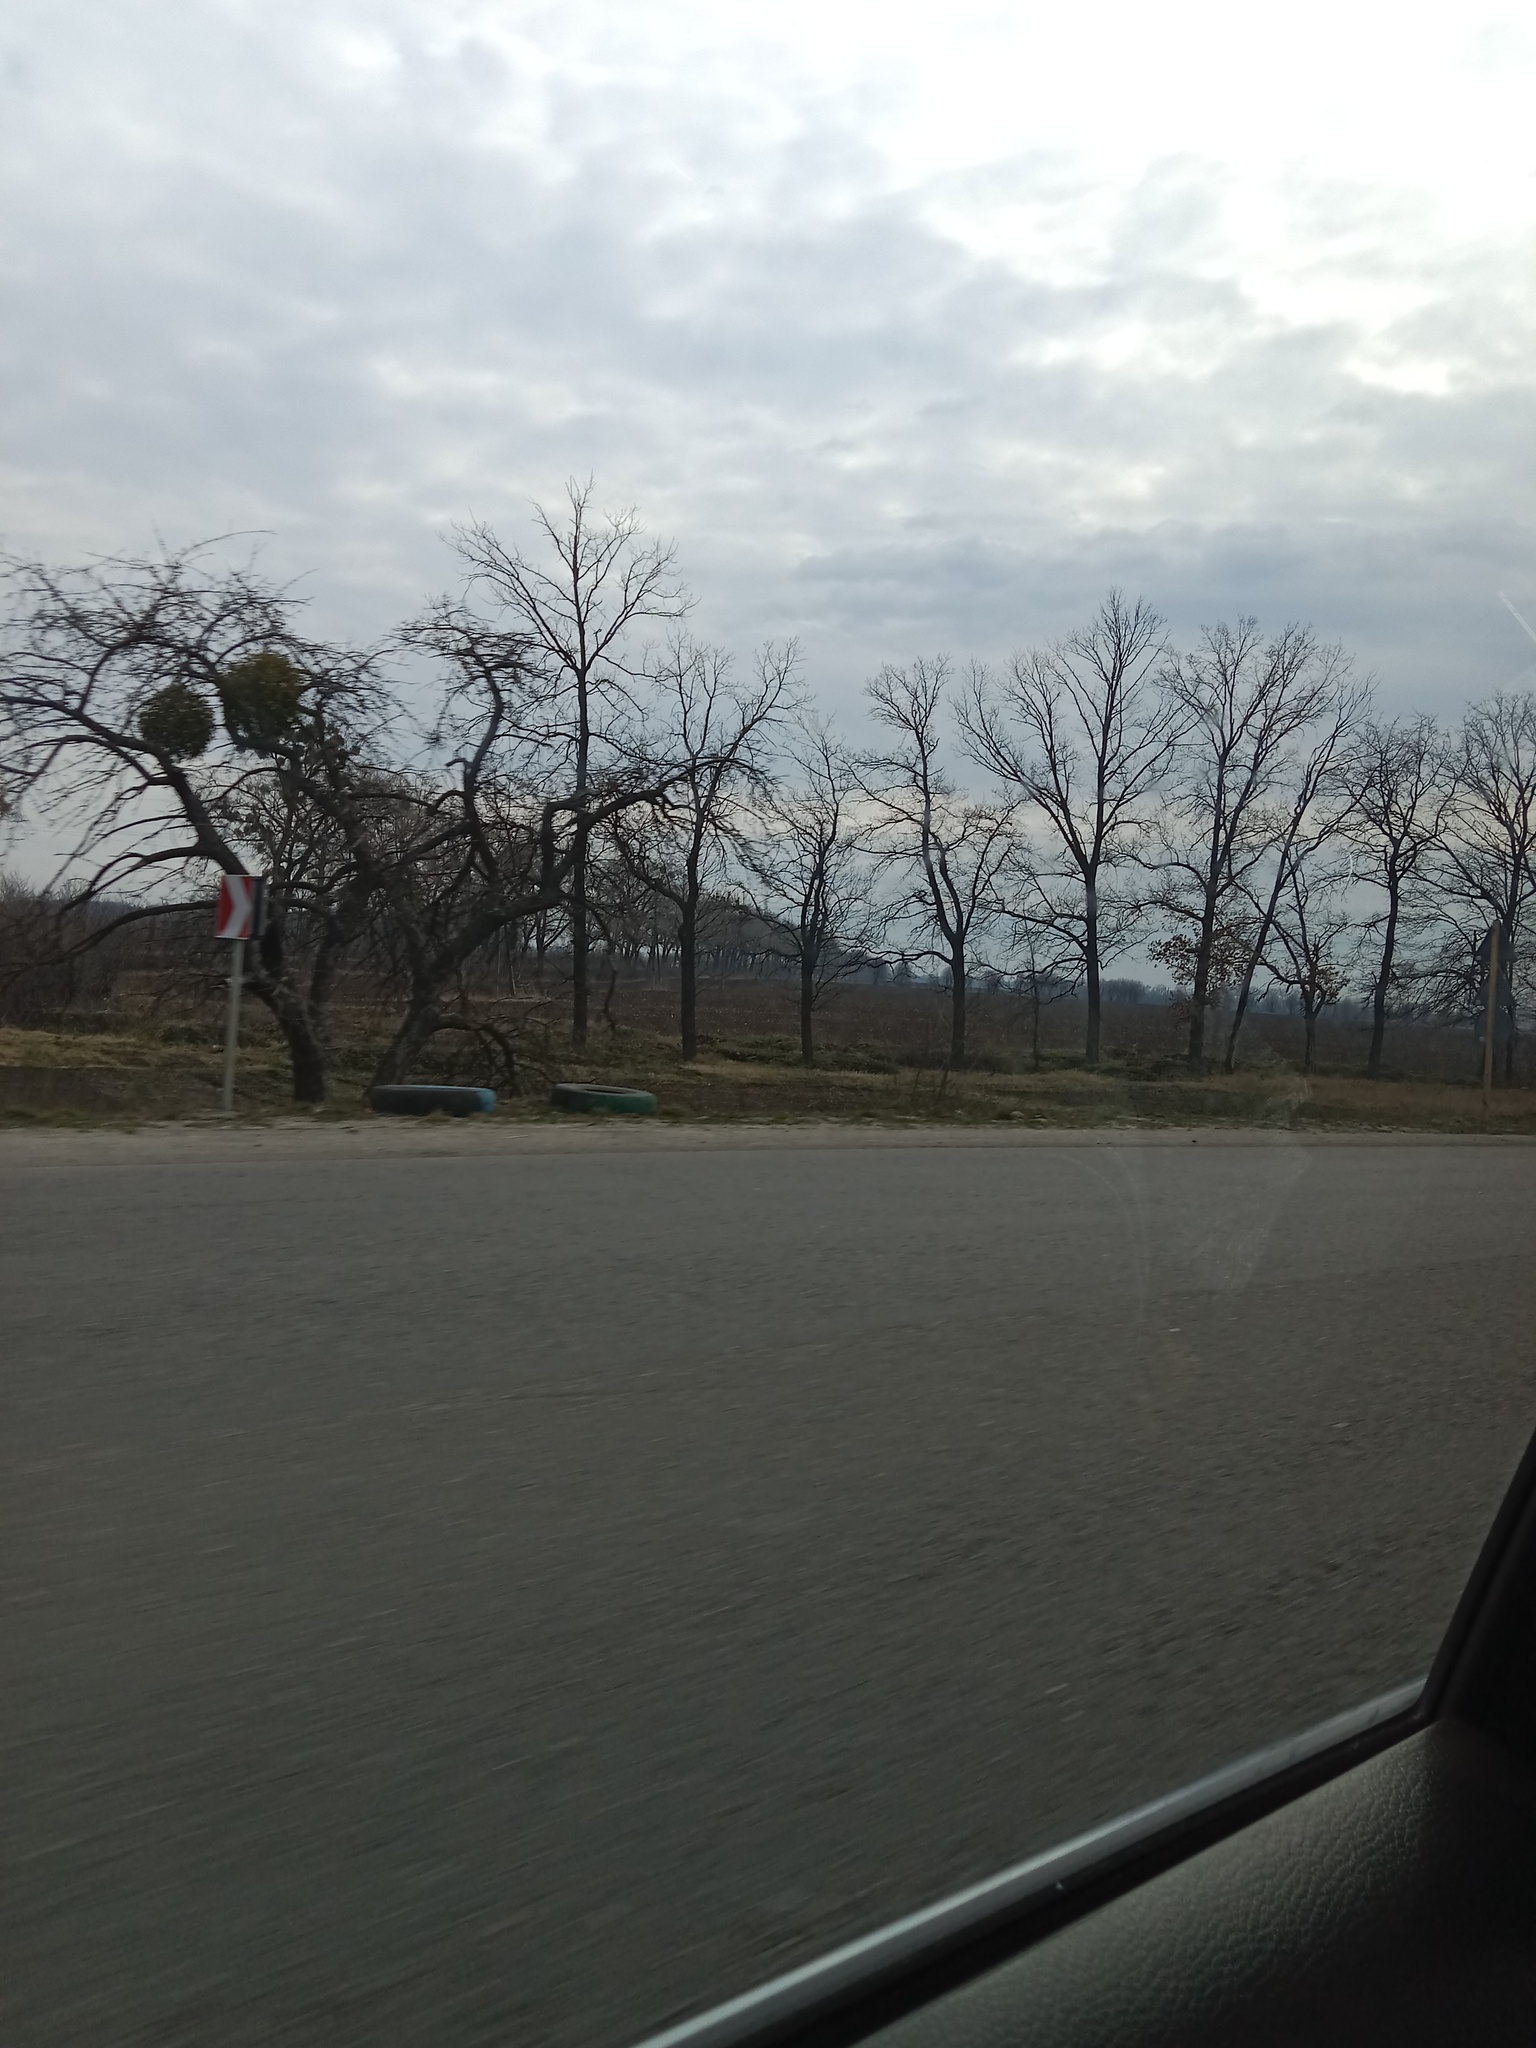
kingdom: Plantae
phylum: Tracheophyta
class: Magnoliopsida
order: Santalales
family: Viscaceae
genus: Viscum
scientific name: Viscum album
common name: Mistletoe
